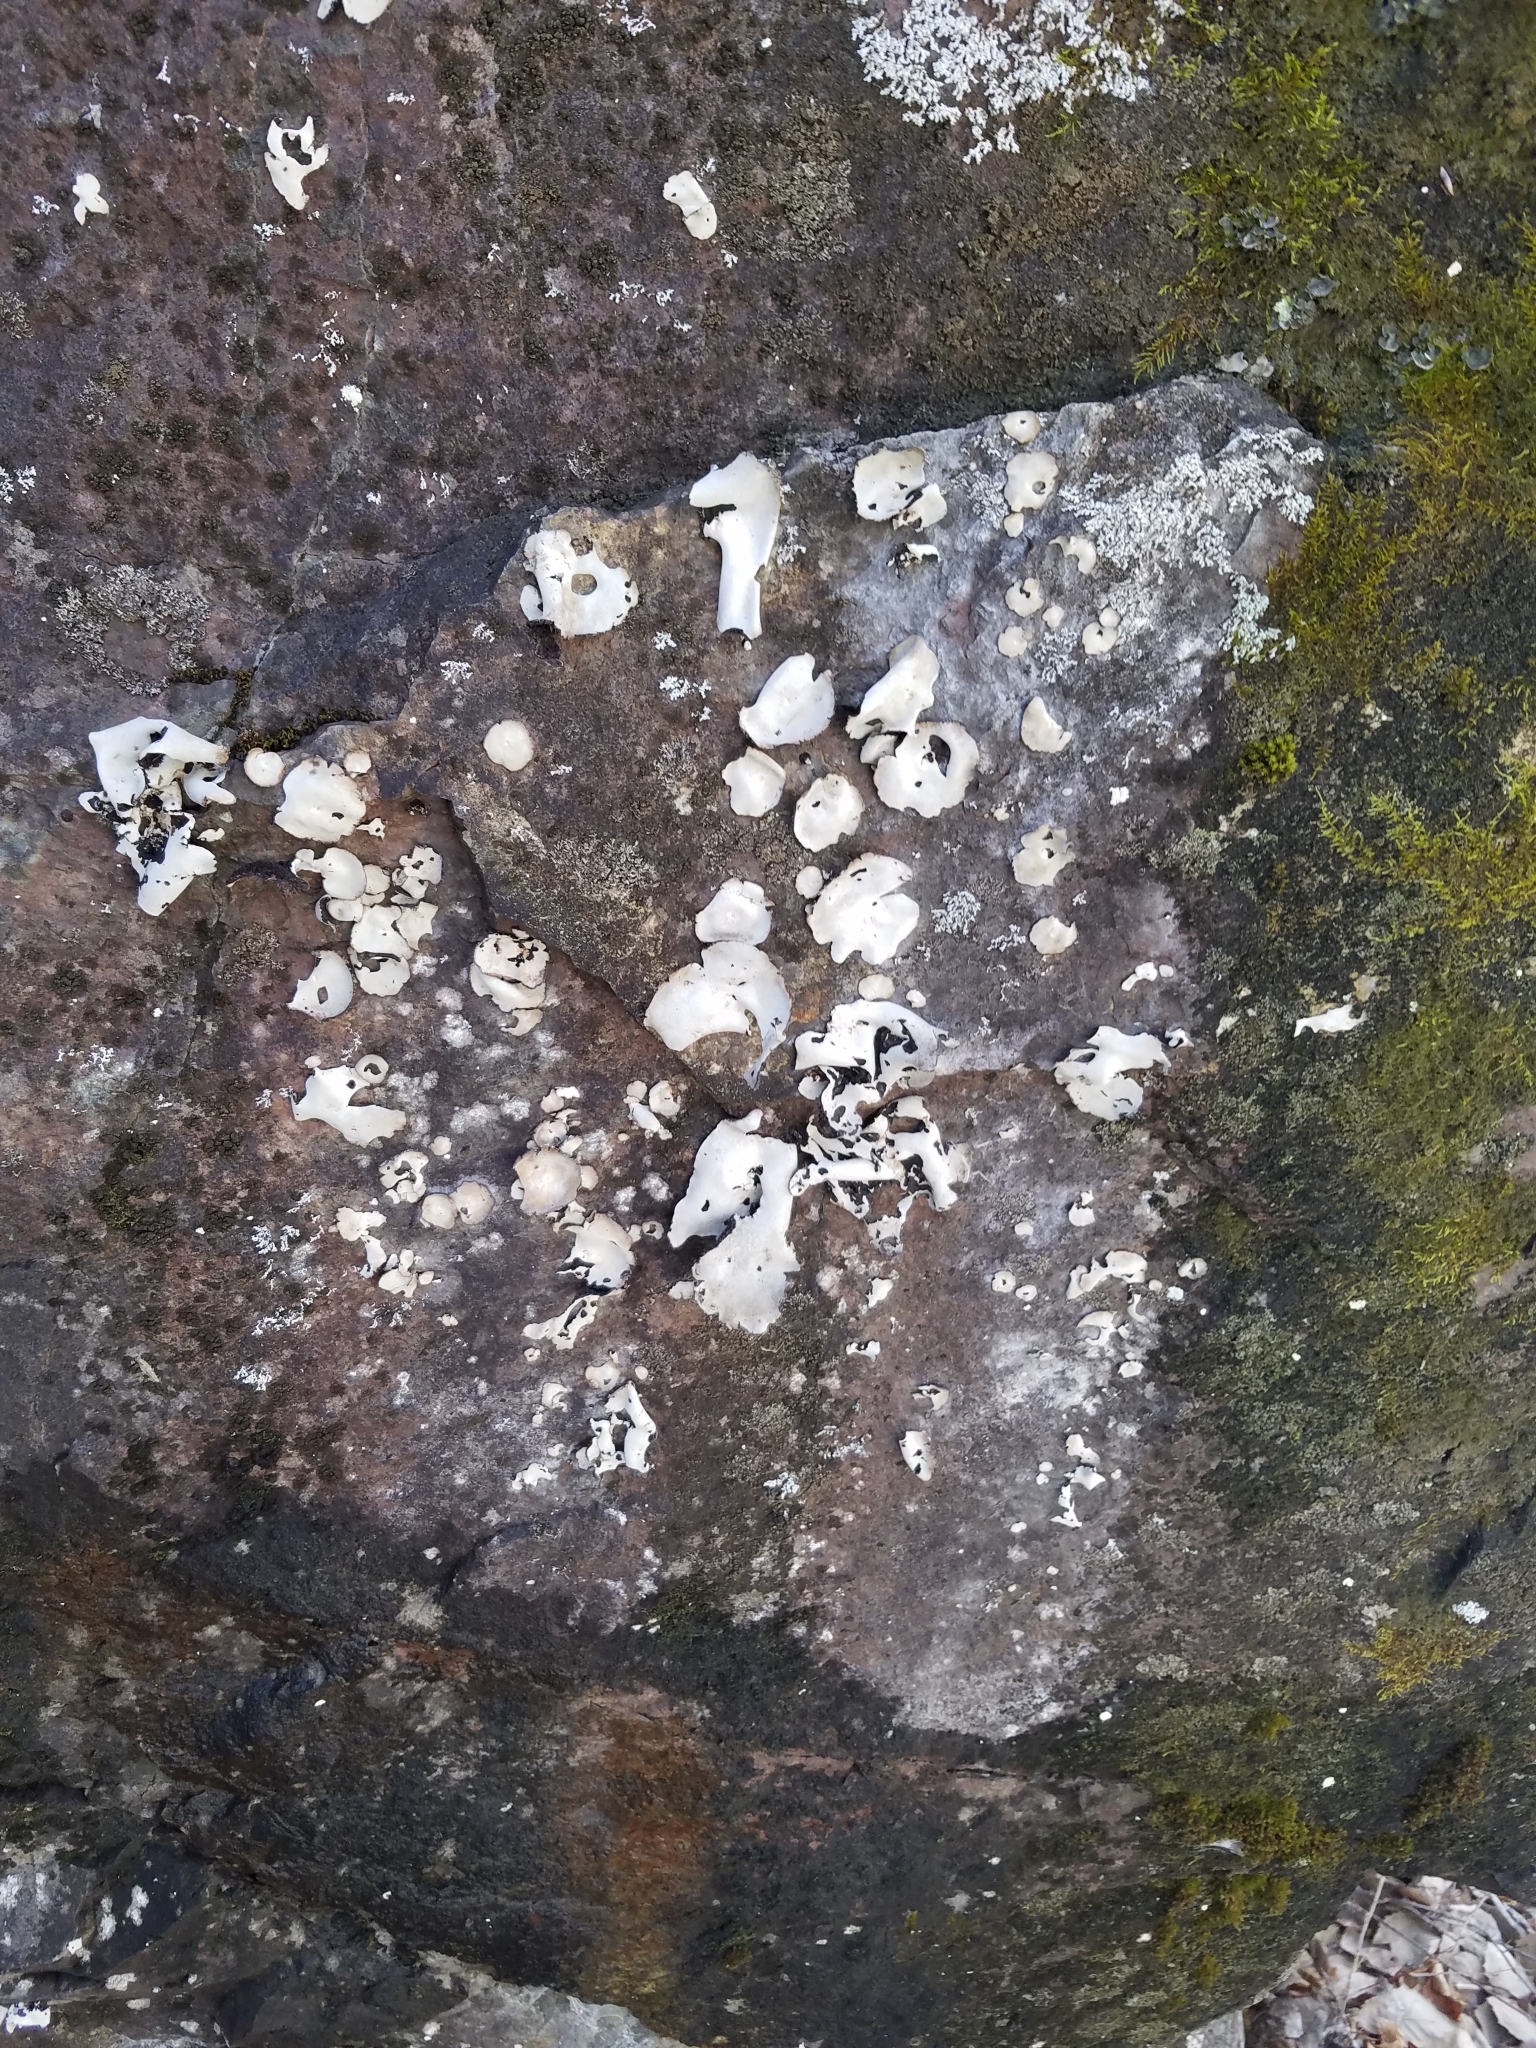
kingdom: Fungi
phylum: Ascomycota
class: Lecanoromycetes
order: Umbilicariales
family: Umbilicariaceae
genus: Umbilicaria
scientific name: Umbilicaria americana
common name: Frosted rock tripe
